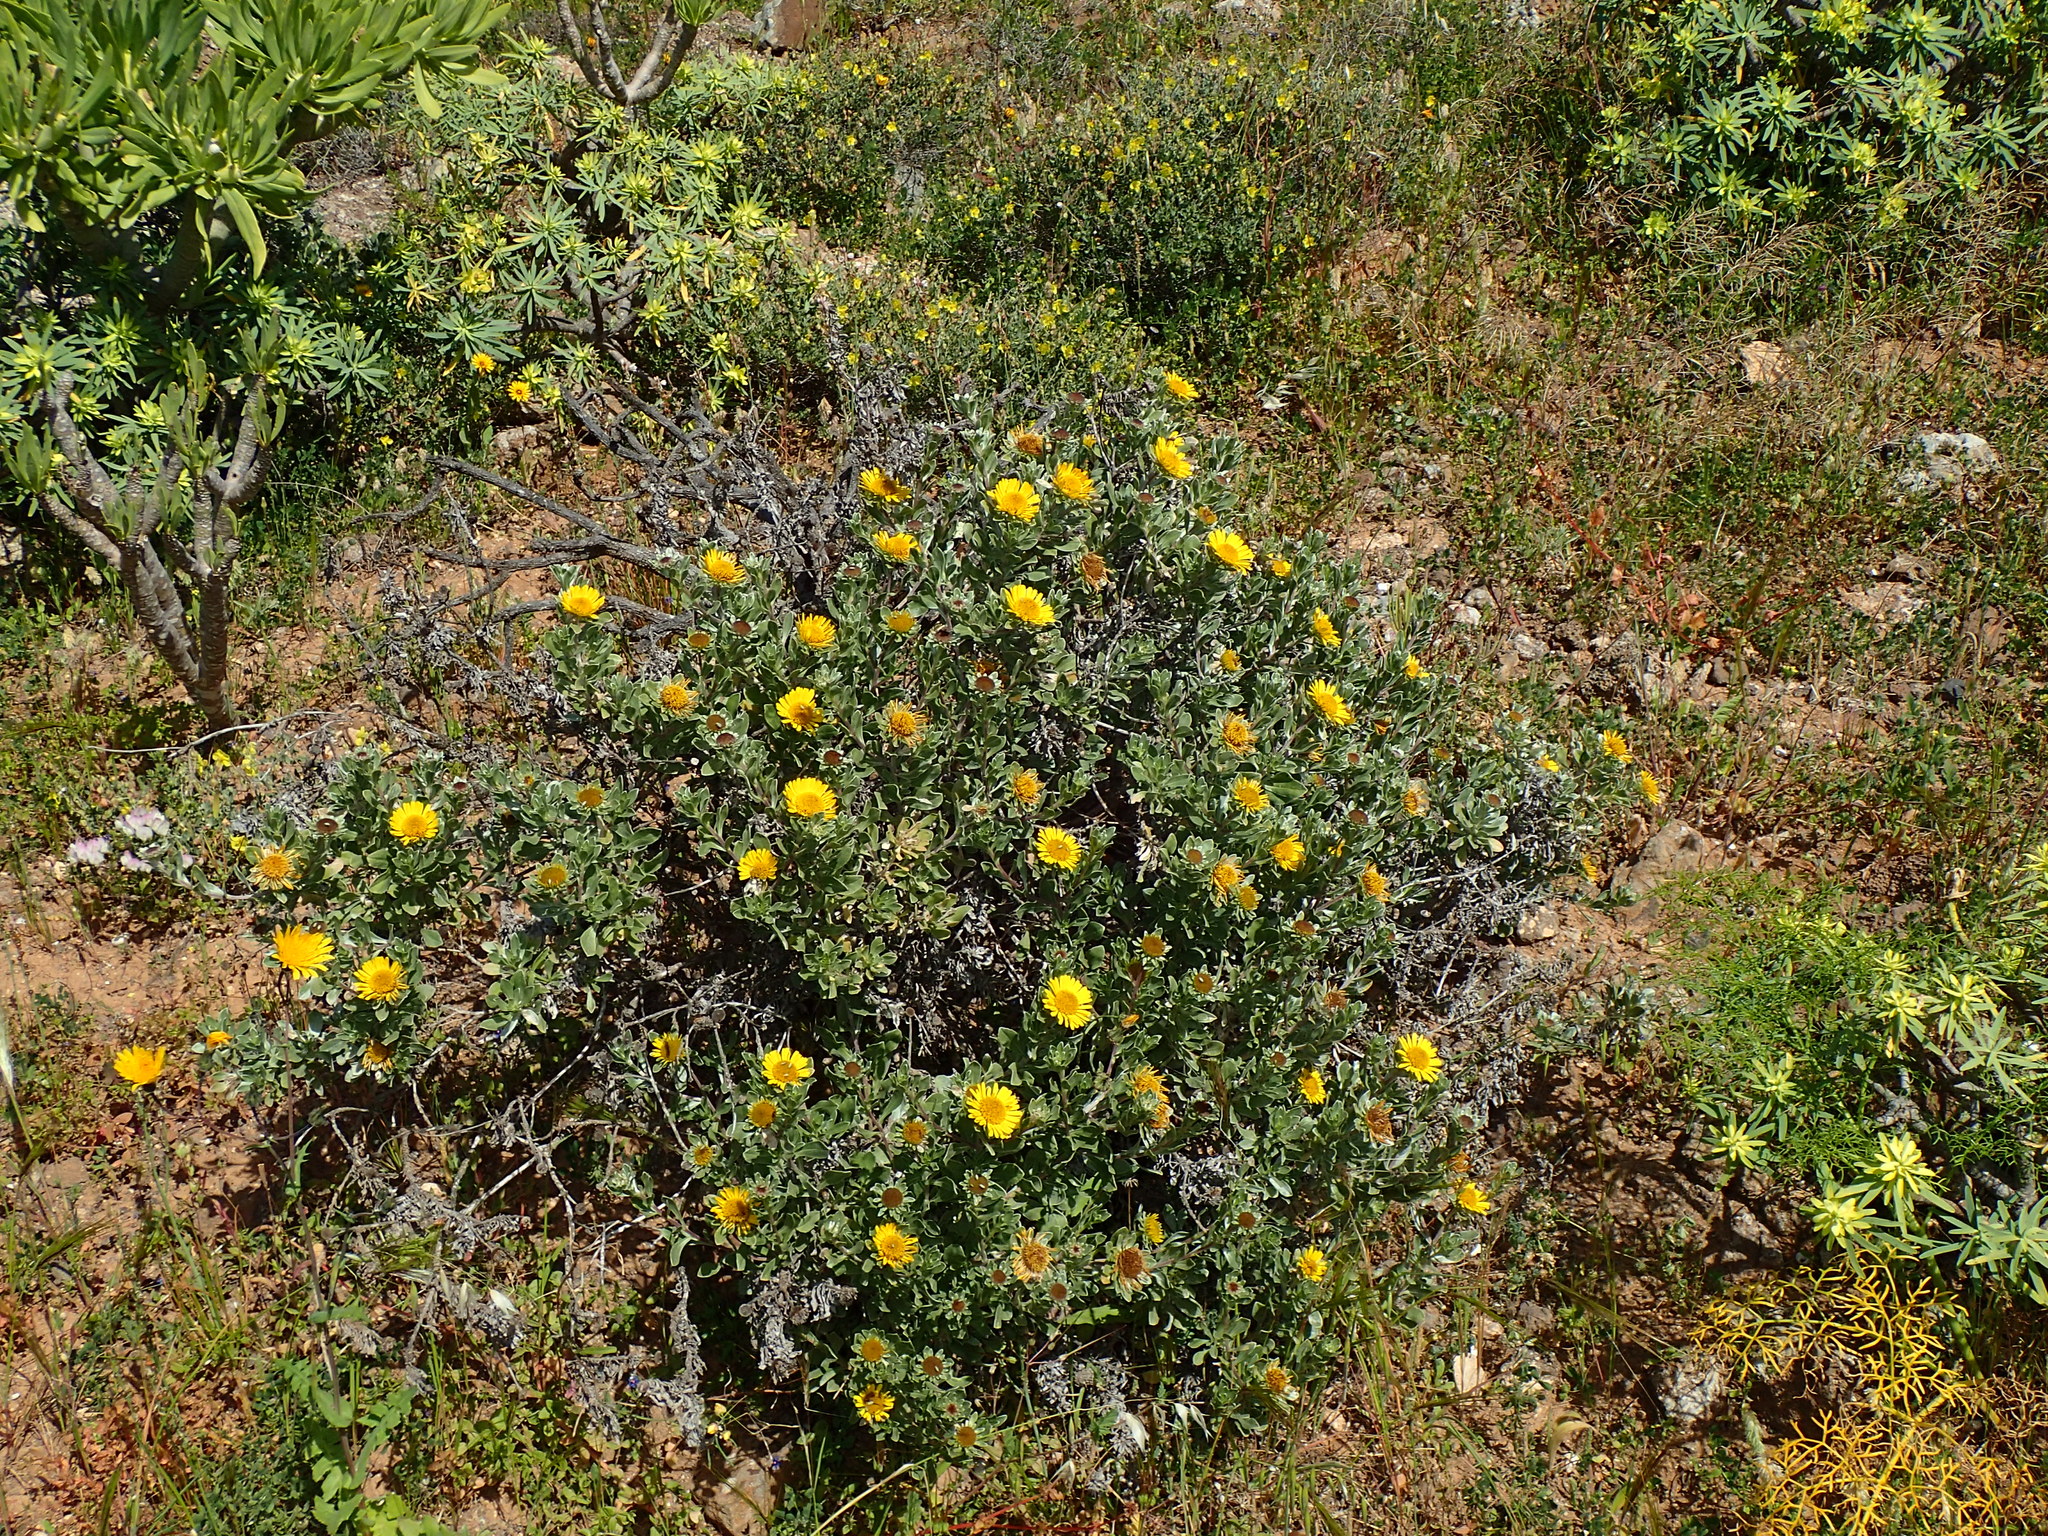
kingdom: Plantae
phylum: Tracheophyta
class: Magnoliopsida
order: Asterales
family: Asteraceae
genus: Asteriscus
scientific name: Asteriscus intermedius
